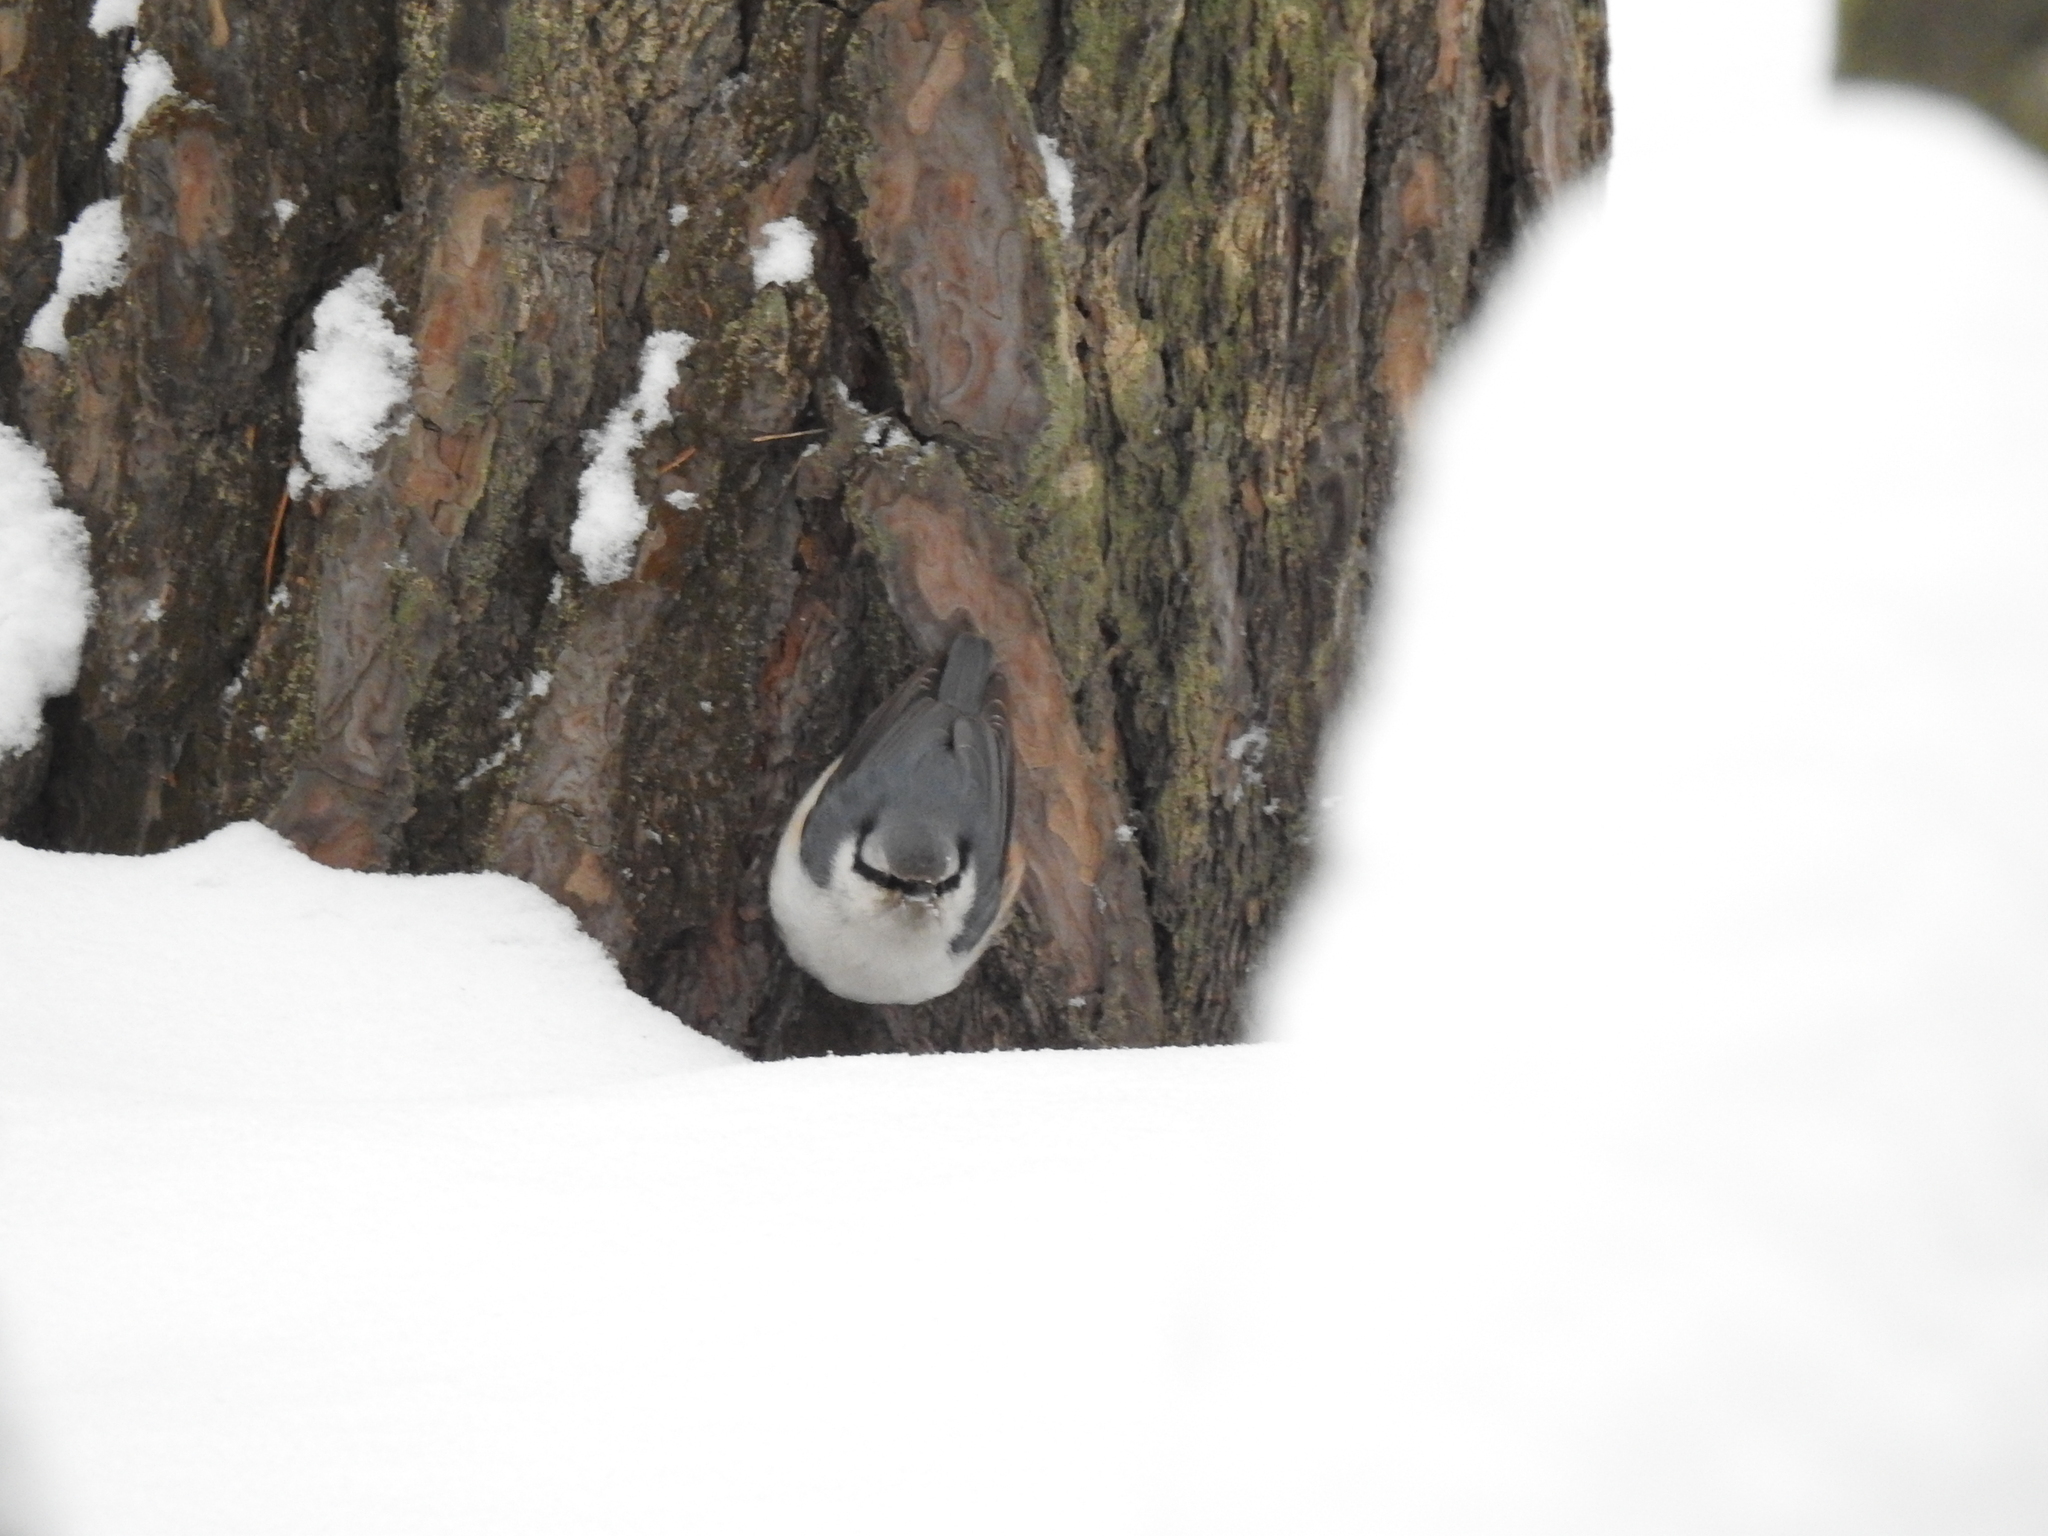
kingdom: Animalia
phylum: Chordata
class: Aves
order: Passeriformes
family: Sittidae
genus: Sitta
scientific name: Sitta europaea
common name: Eurasian nuthatch
